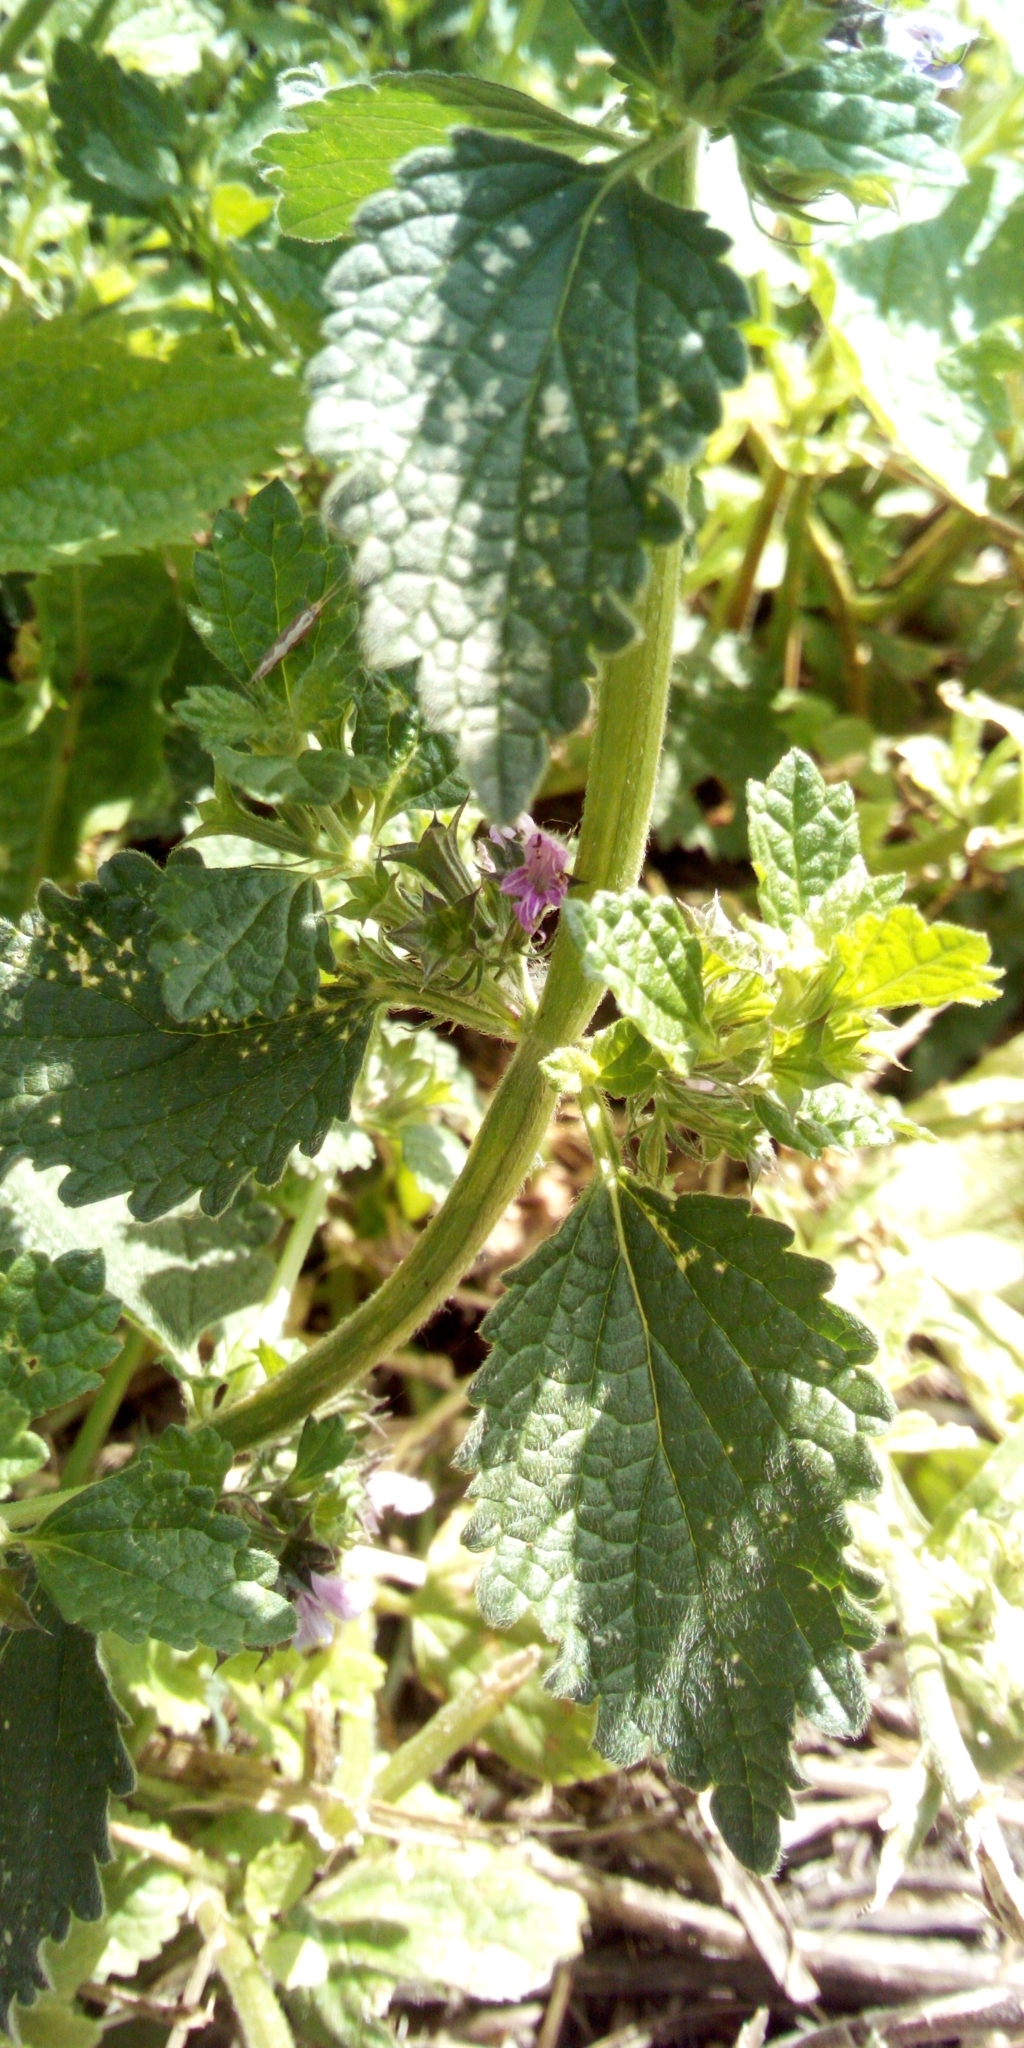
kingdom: Plantae
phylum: Tracheophyta
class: Magnoliopsida
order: Lamiales
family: Lamiaceae
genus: Ballota
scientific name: Ballota nigra
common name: Black horehound
